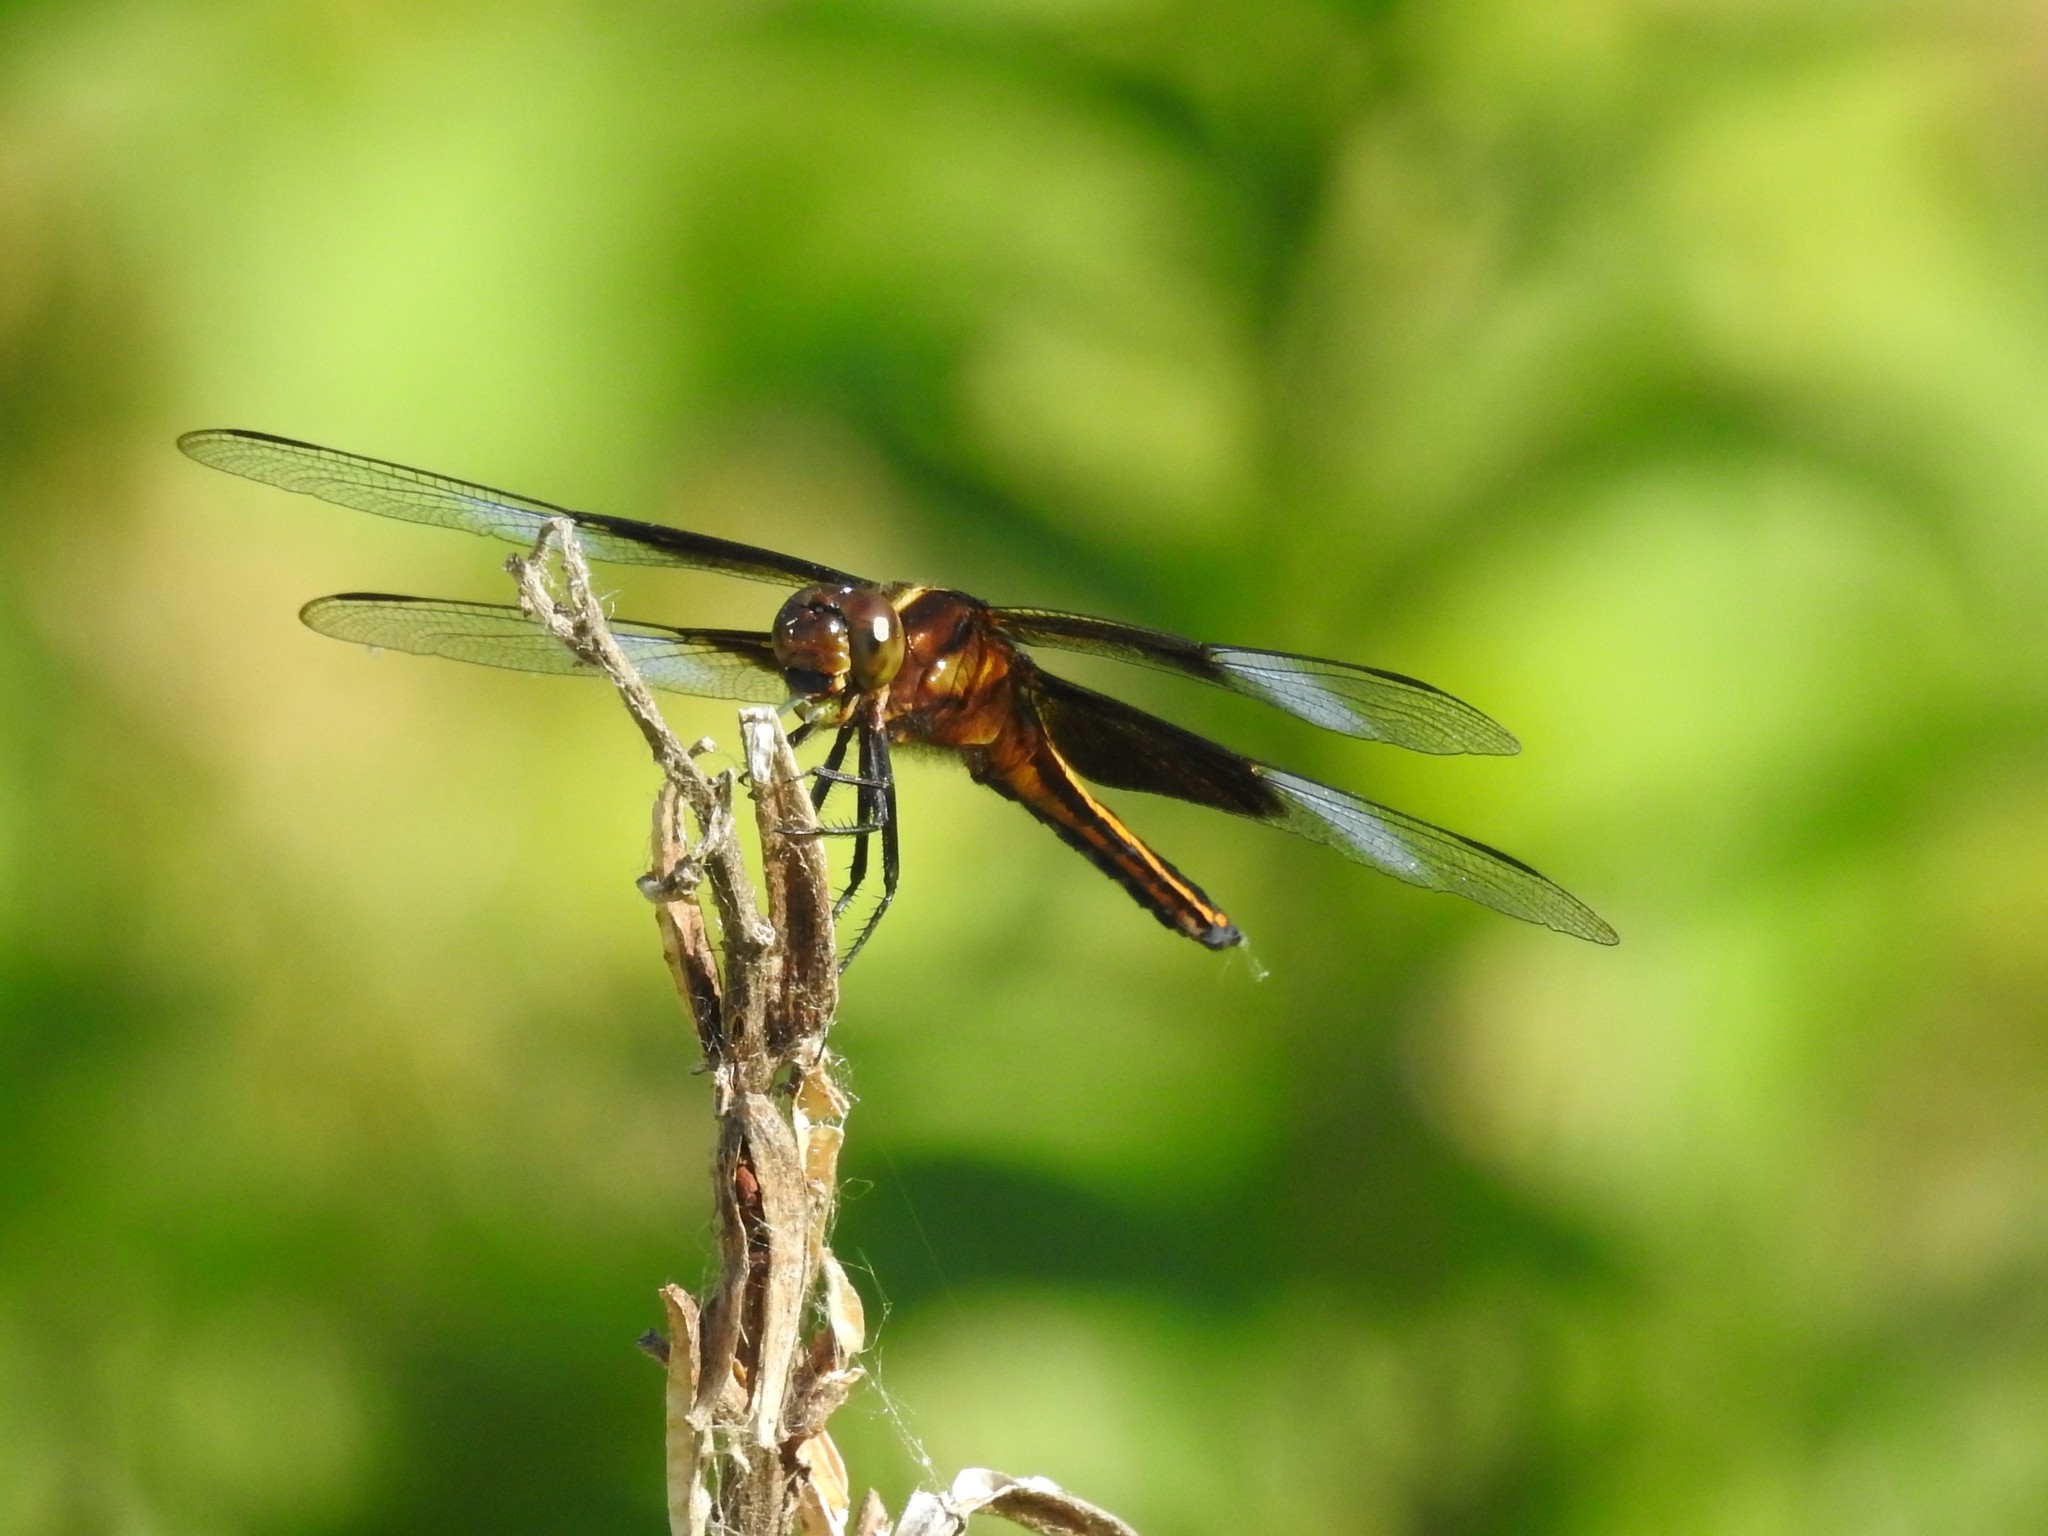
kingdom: Animalia
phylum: Arthropoda
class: Insecta
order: Odonata
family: Libellulidae
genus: Libellula
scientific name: Libellula luctuosa
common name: Widow skimmer
